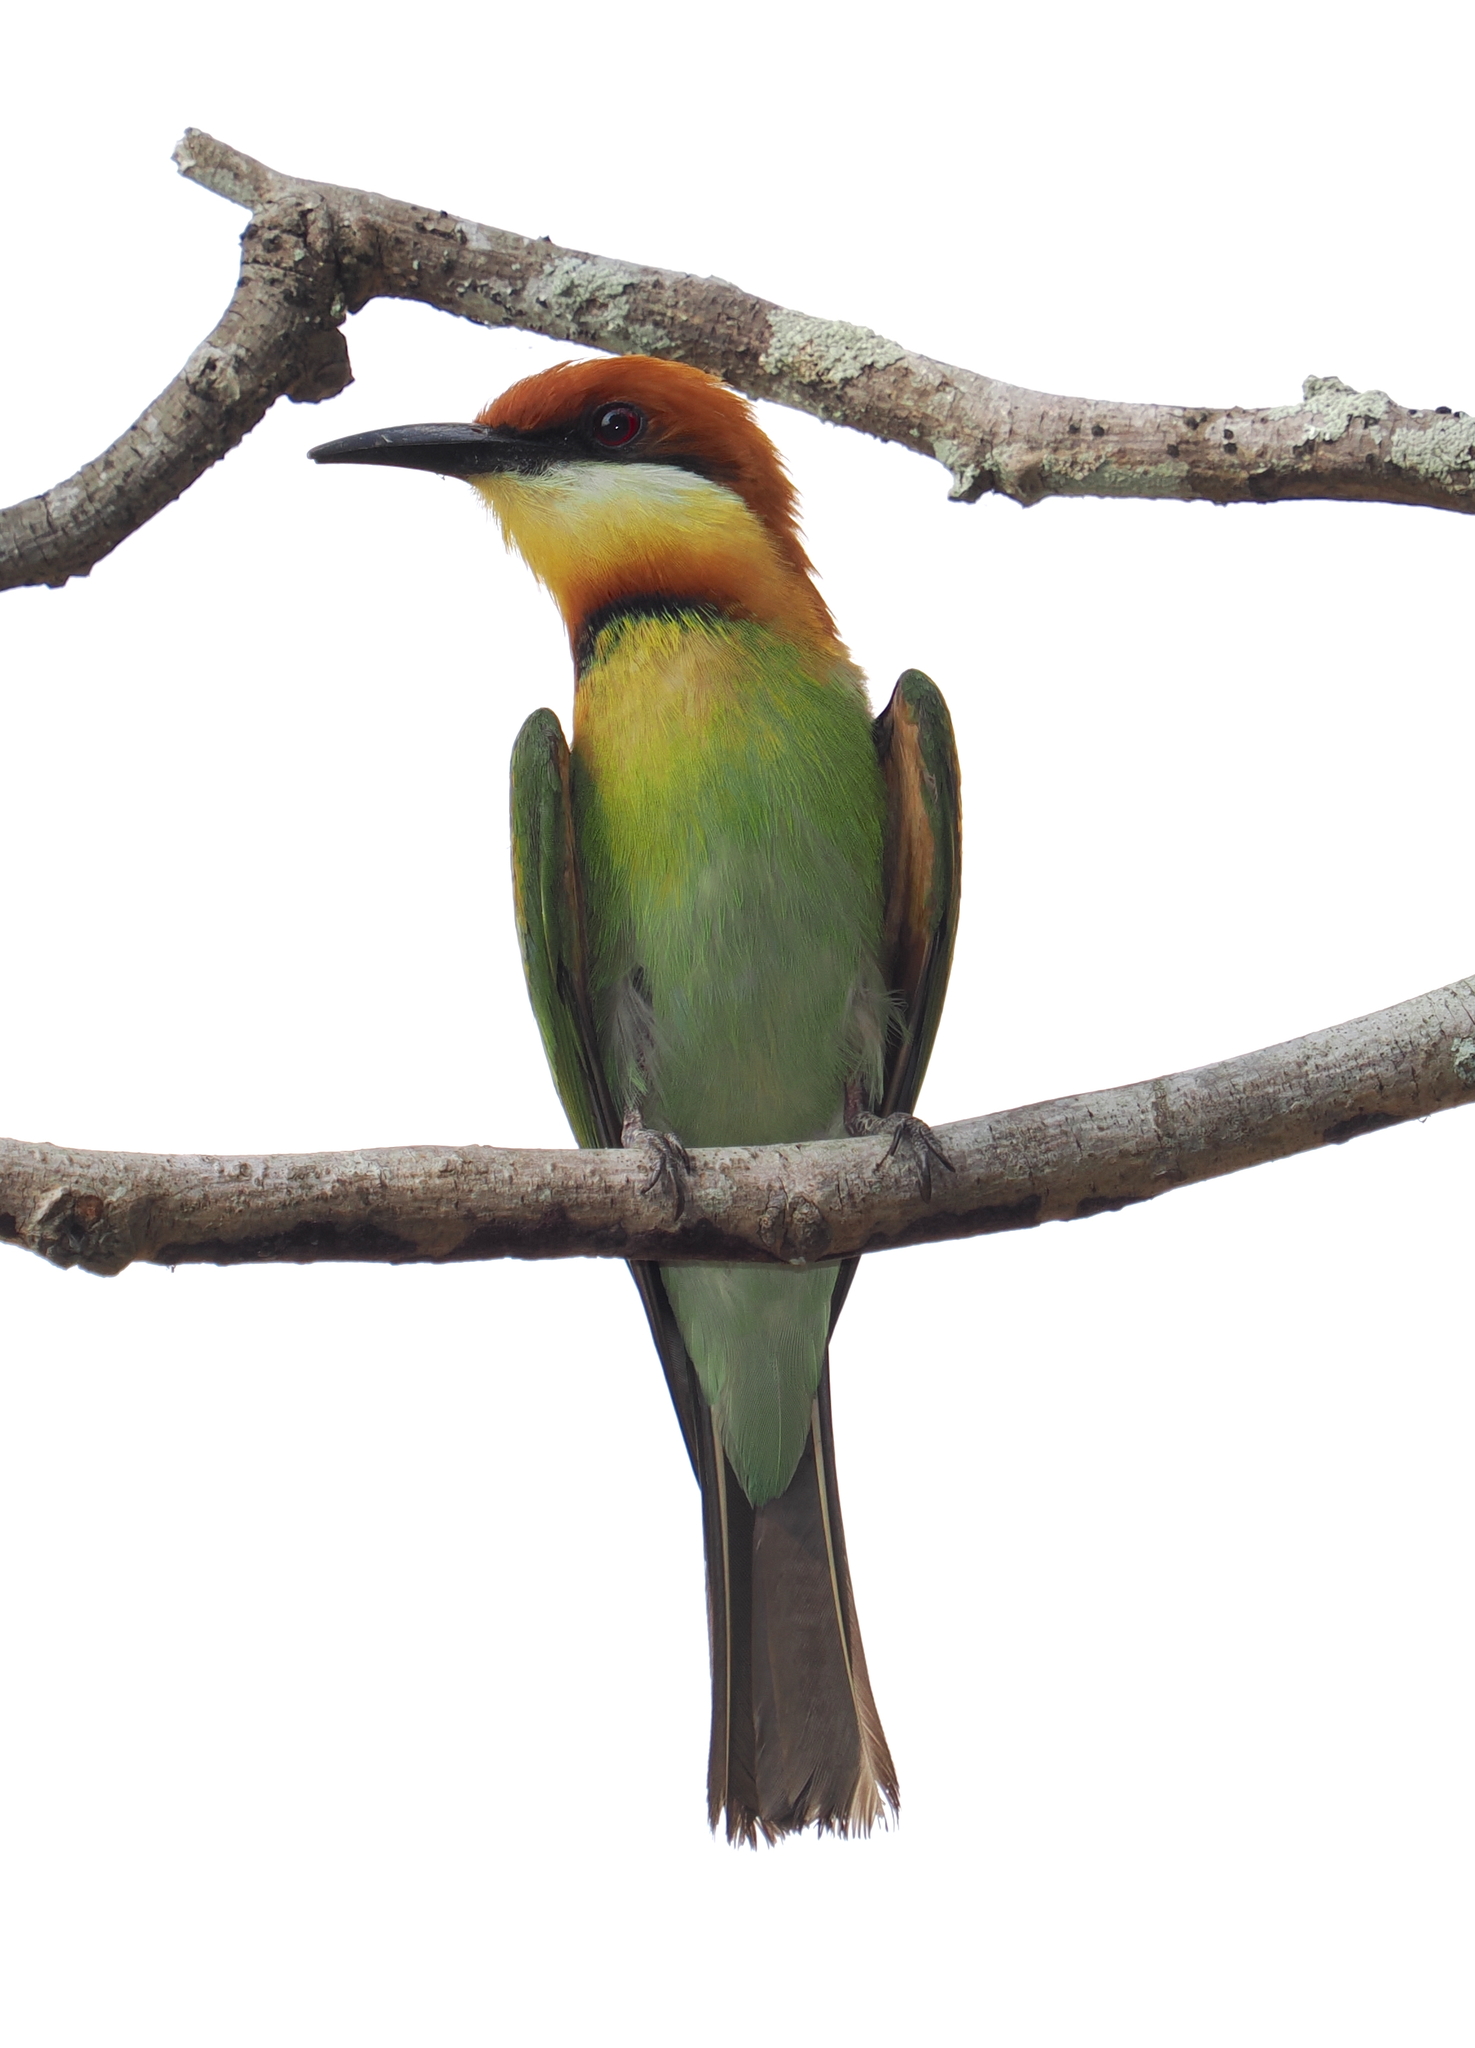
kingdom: Animalia
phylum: Chordata
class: Aves
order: Coraciiformes
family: Meropidae
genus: Merops
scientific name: Merops leschenaulti
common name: Chestnut-headed bee-eater
